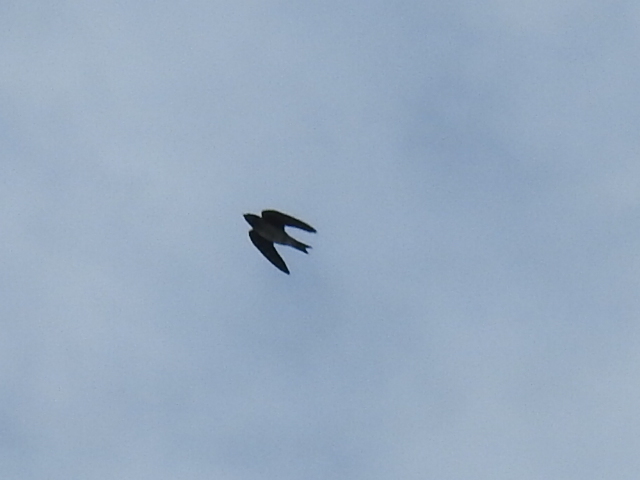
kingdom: Animalia
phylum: Chordata
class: Aves
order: Passeriformes
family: Hirundinidae
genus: Progne
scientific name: Progne subis
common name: Purple martin
